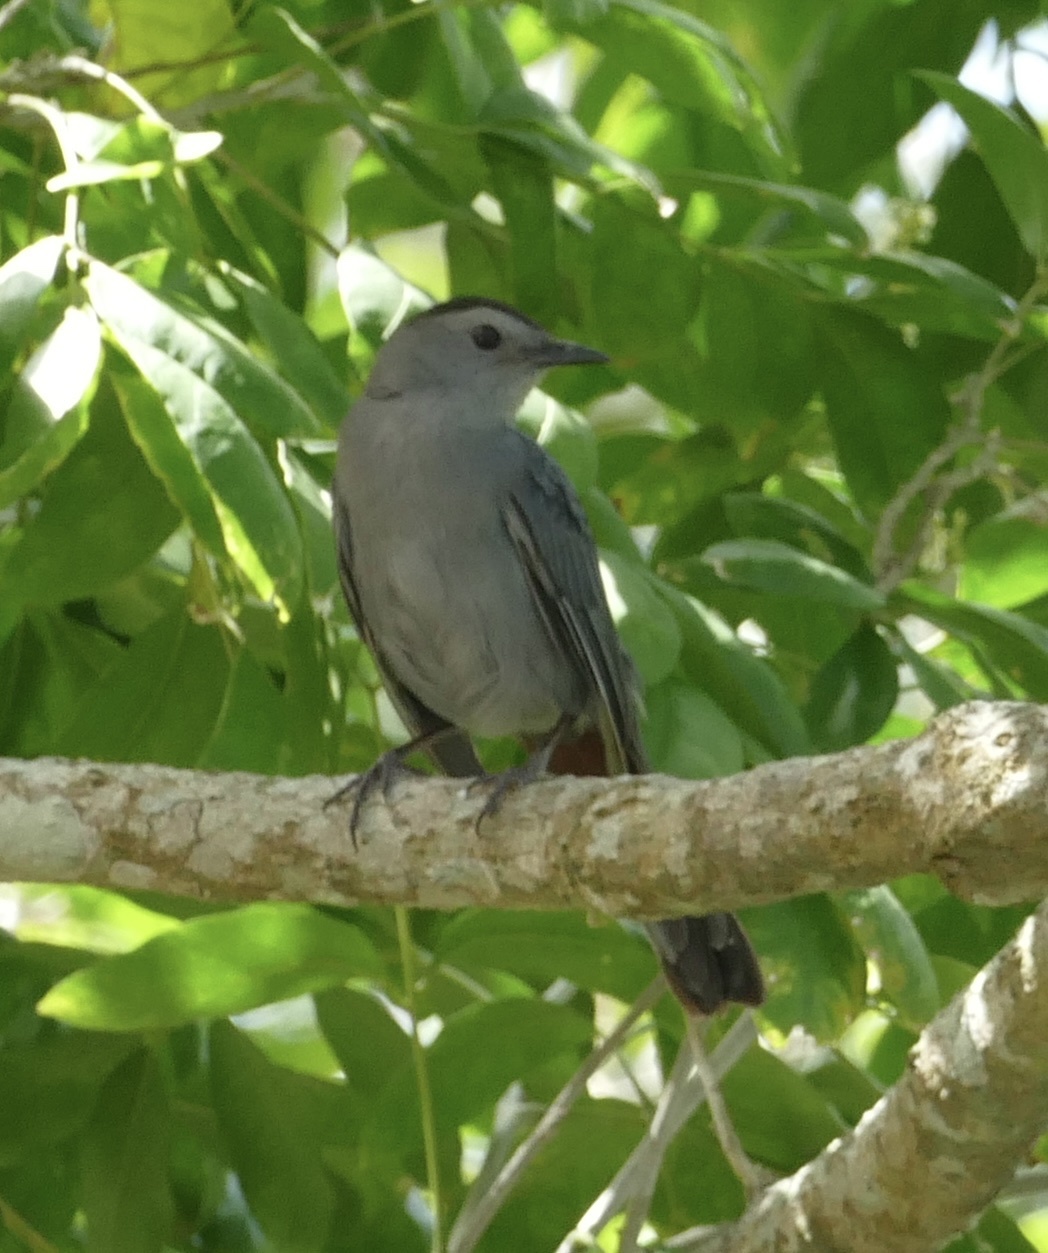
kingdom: Animalia
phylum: Chordata
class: Aves
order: Passeriformes
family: Mimidae
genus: Dumetella
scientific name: Dumetella carolinensis
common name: Gray catbird
